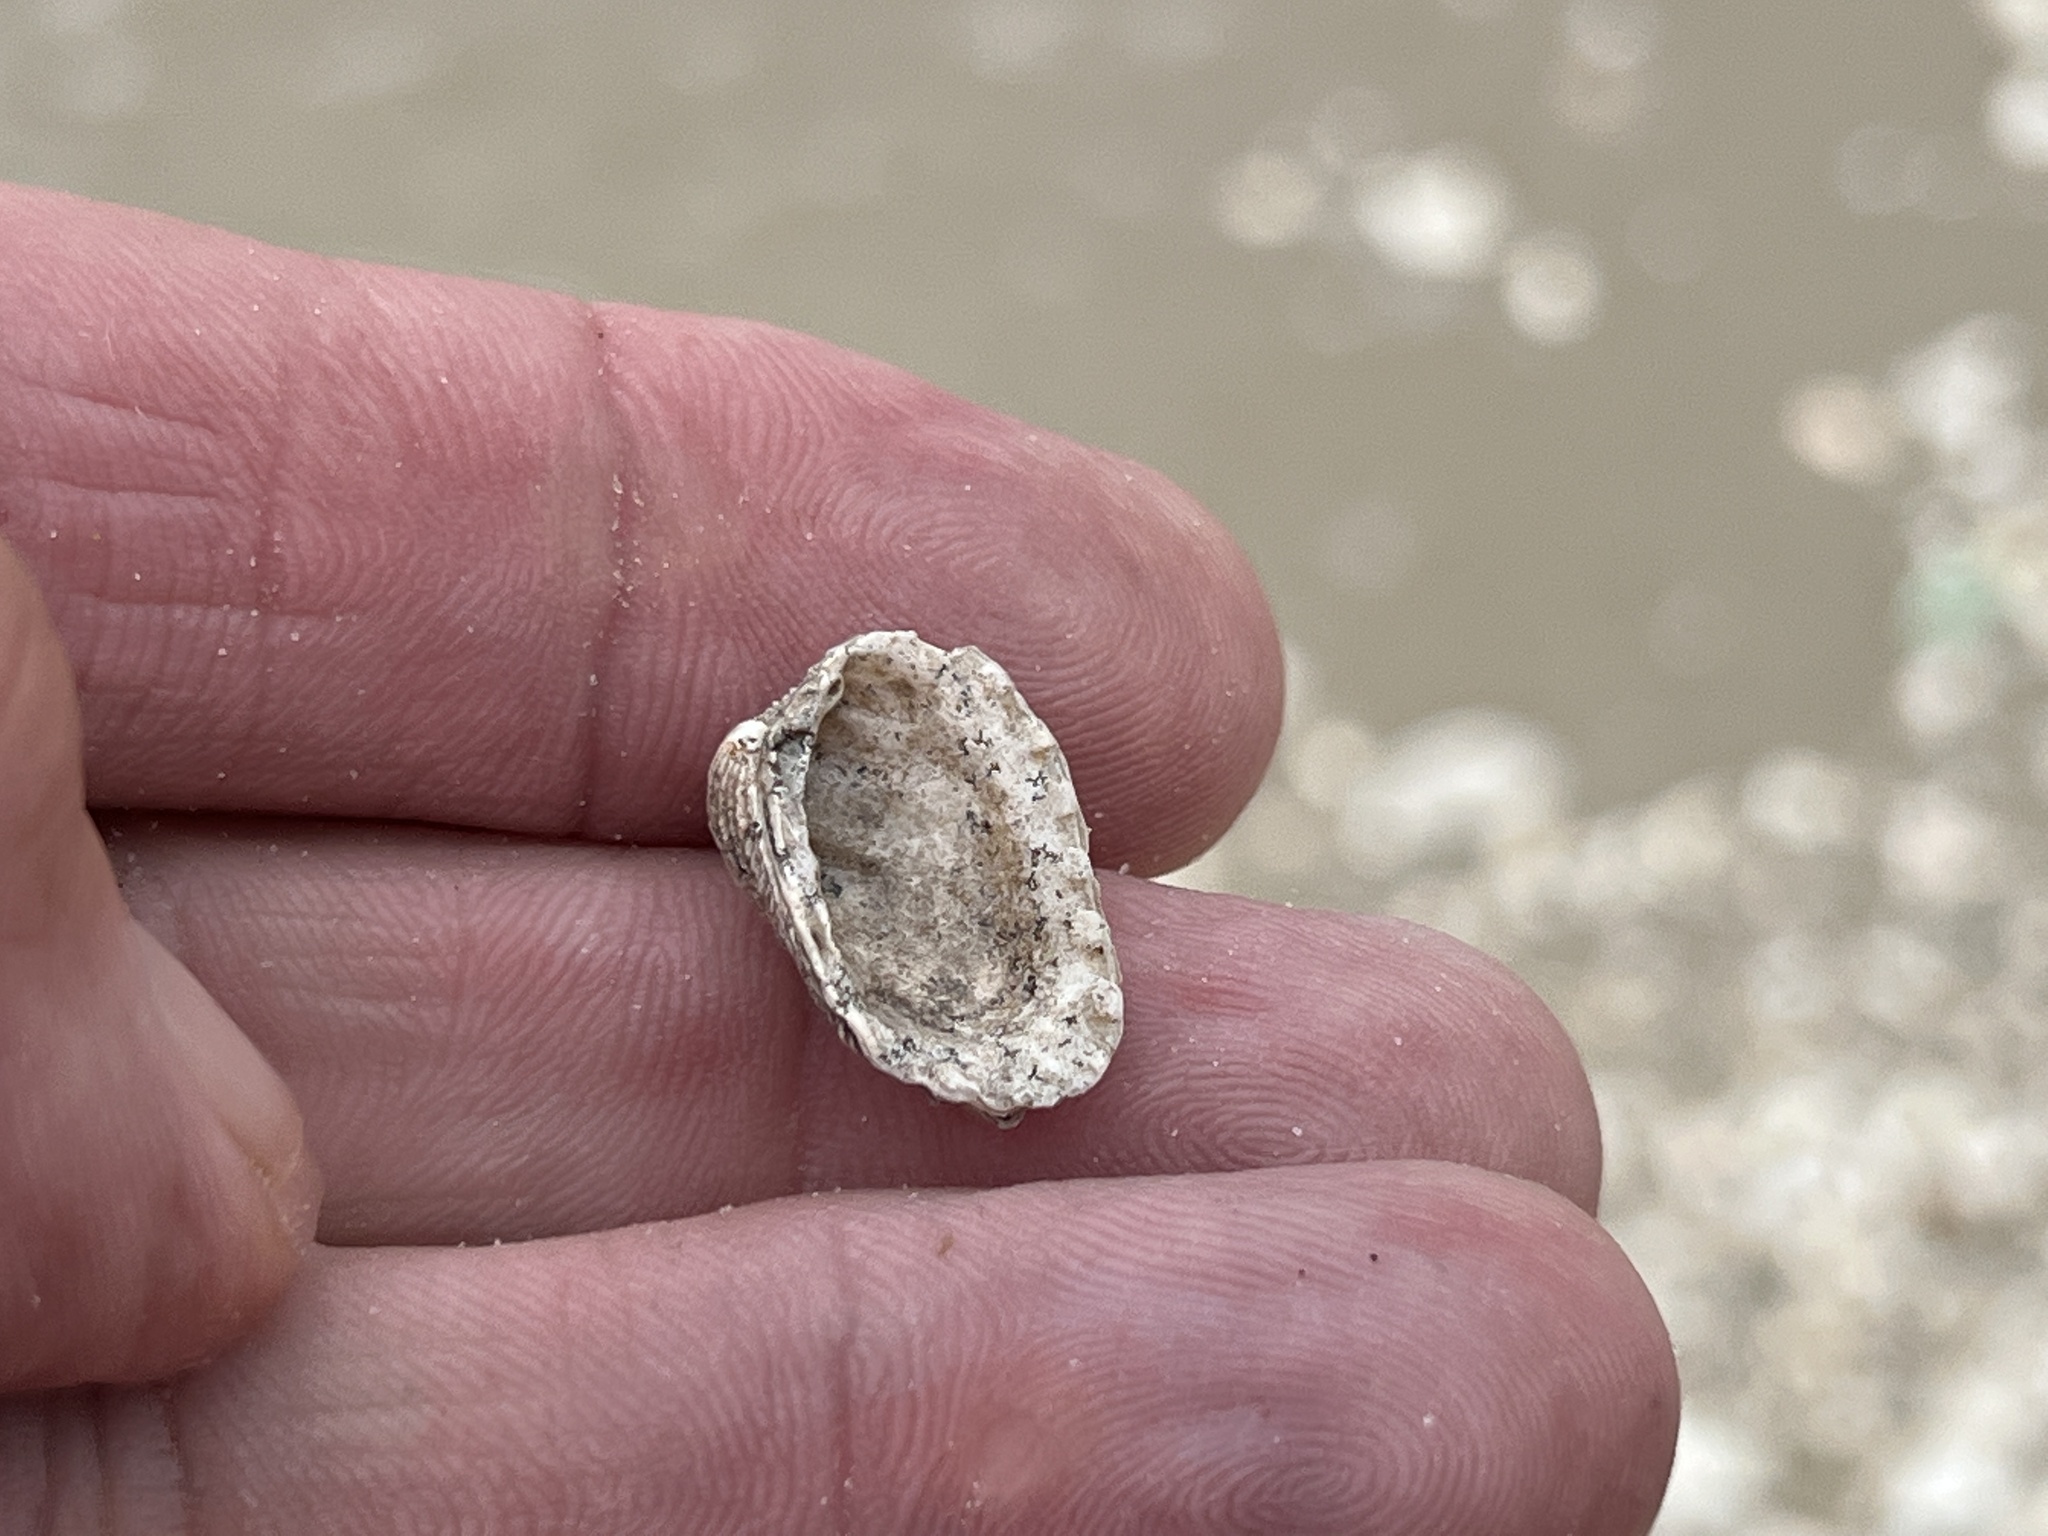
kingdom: Animalia
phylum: Mollusca
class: Bivalvia
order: Carditida
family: Carditidae
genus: Cardites
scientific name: Cardites floridanus
